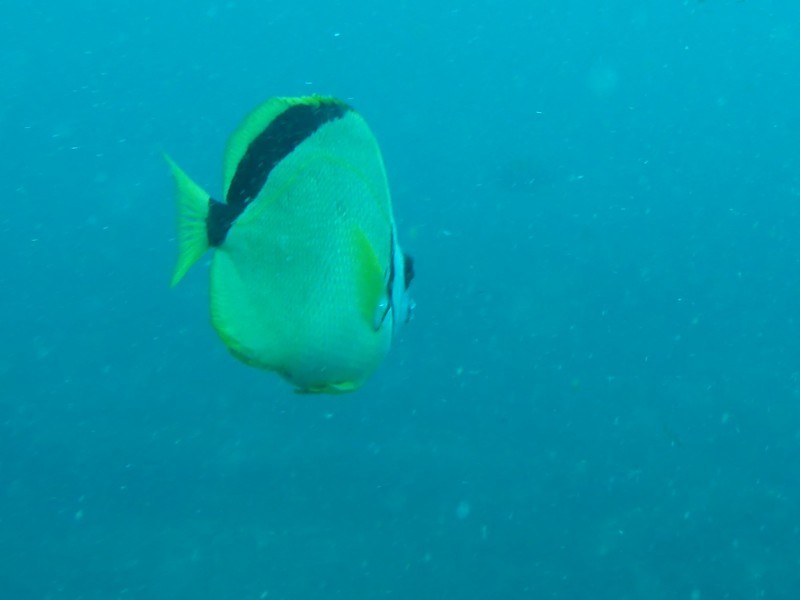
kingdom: Animalia
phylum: Chordata
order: Perciformes
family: Chaetodontidae
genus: Johnrandallia
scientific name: Johnrandallia nigrirostris
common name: Barberfish
